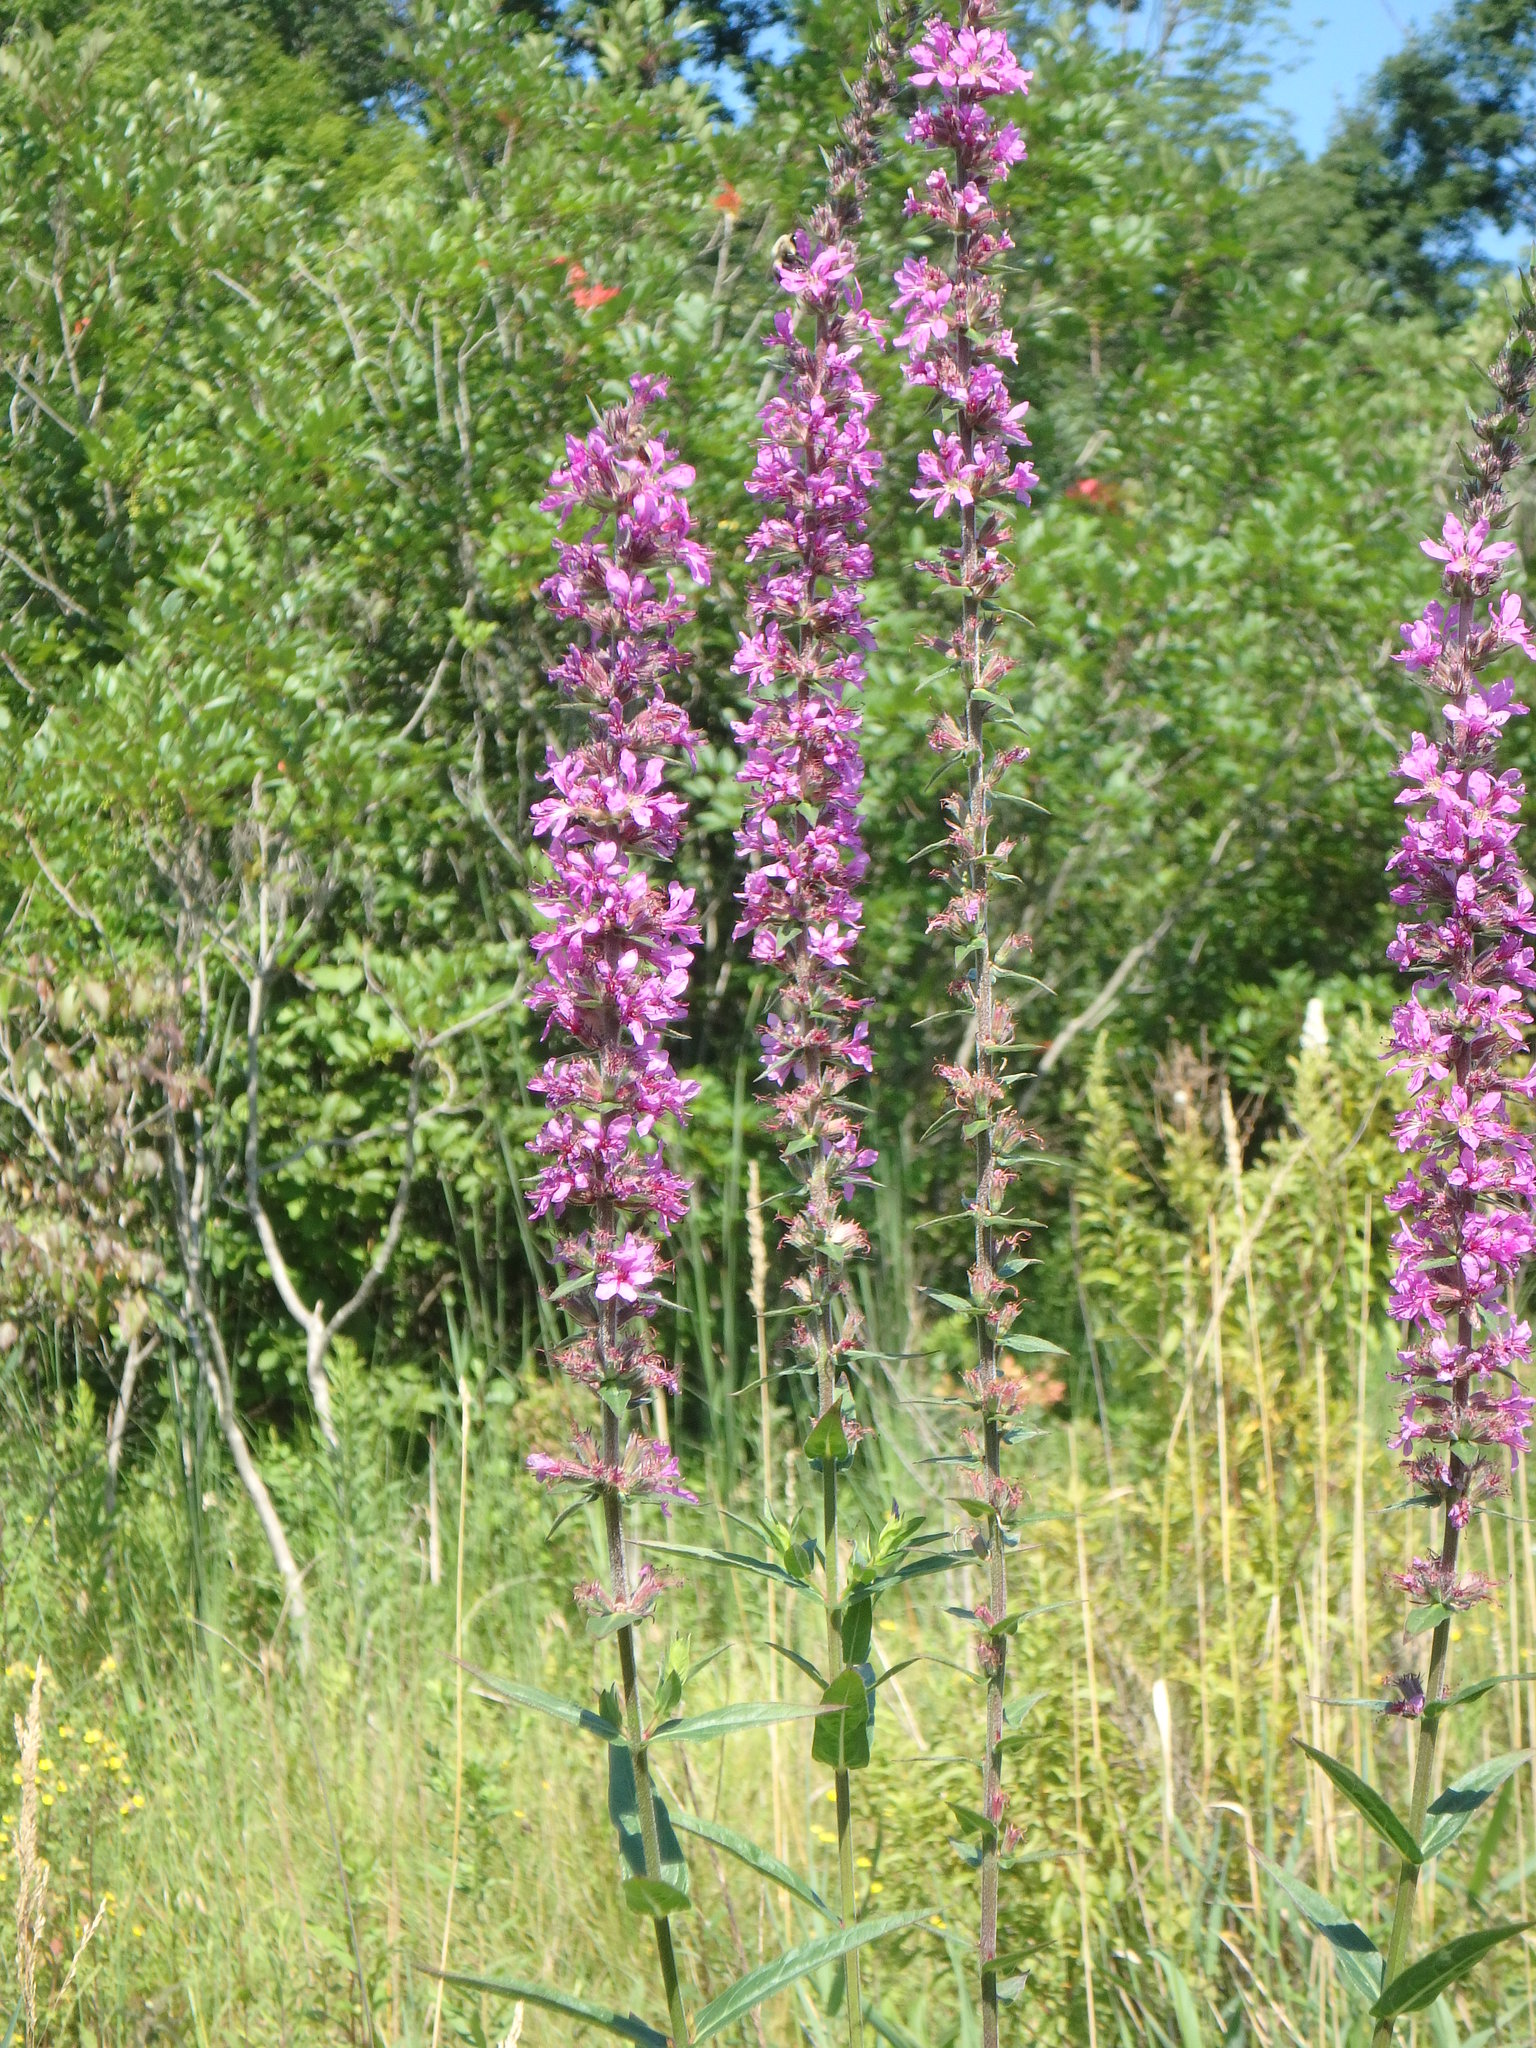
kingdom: Plantae
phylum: Tracheophyta
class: Magnoliopsida
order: Myrtales
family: Lythraceae
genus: Lythrum
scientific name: Lythrum salicaria
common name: Purple loosestrife
